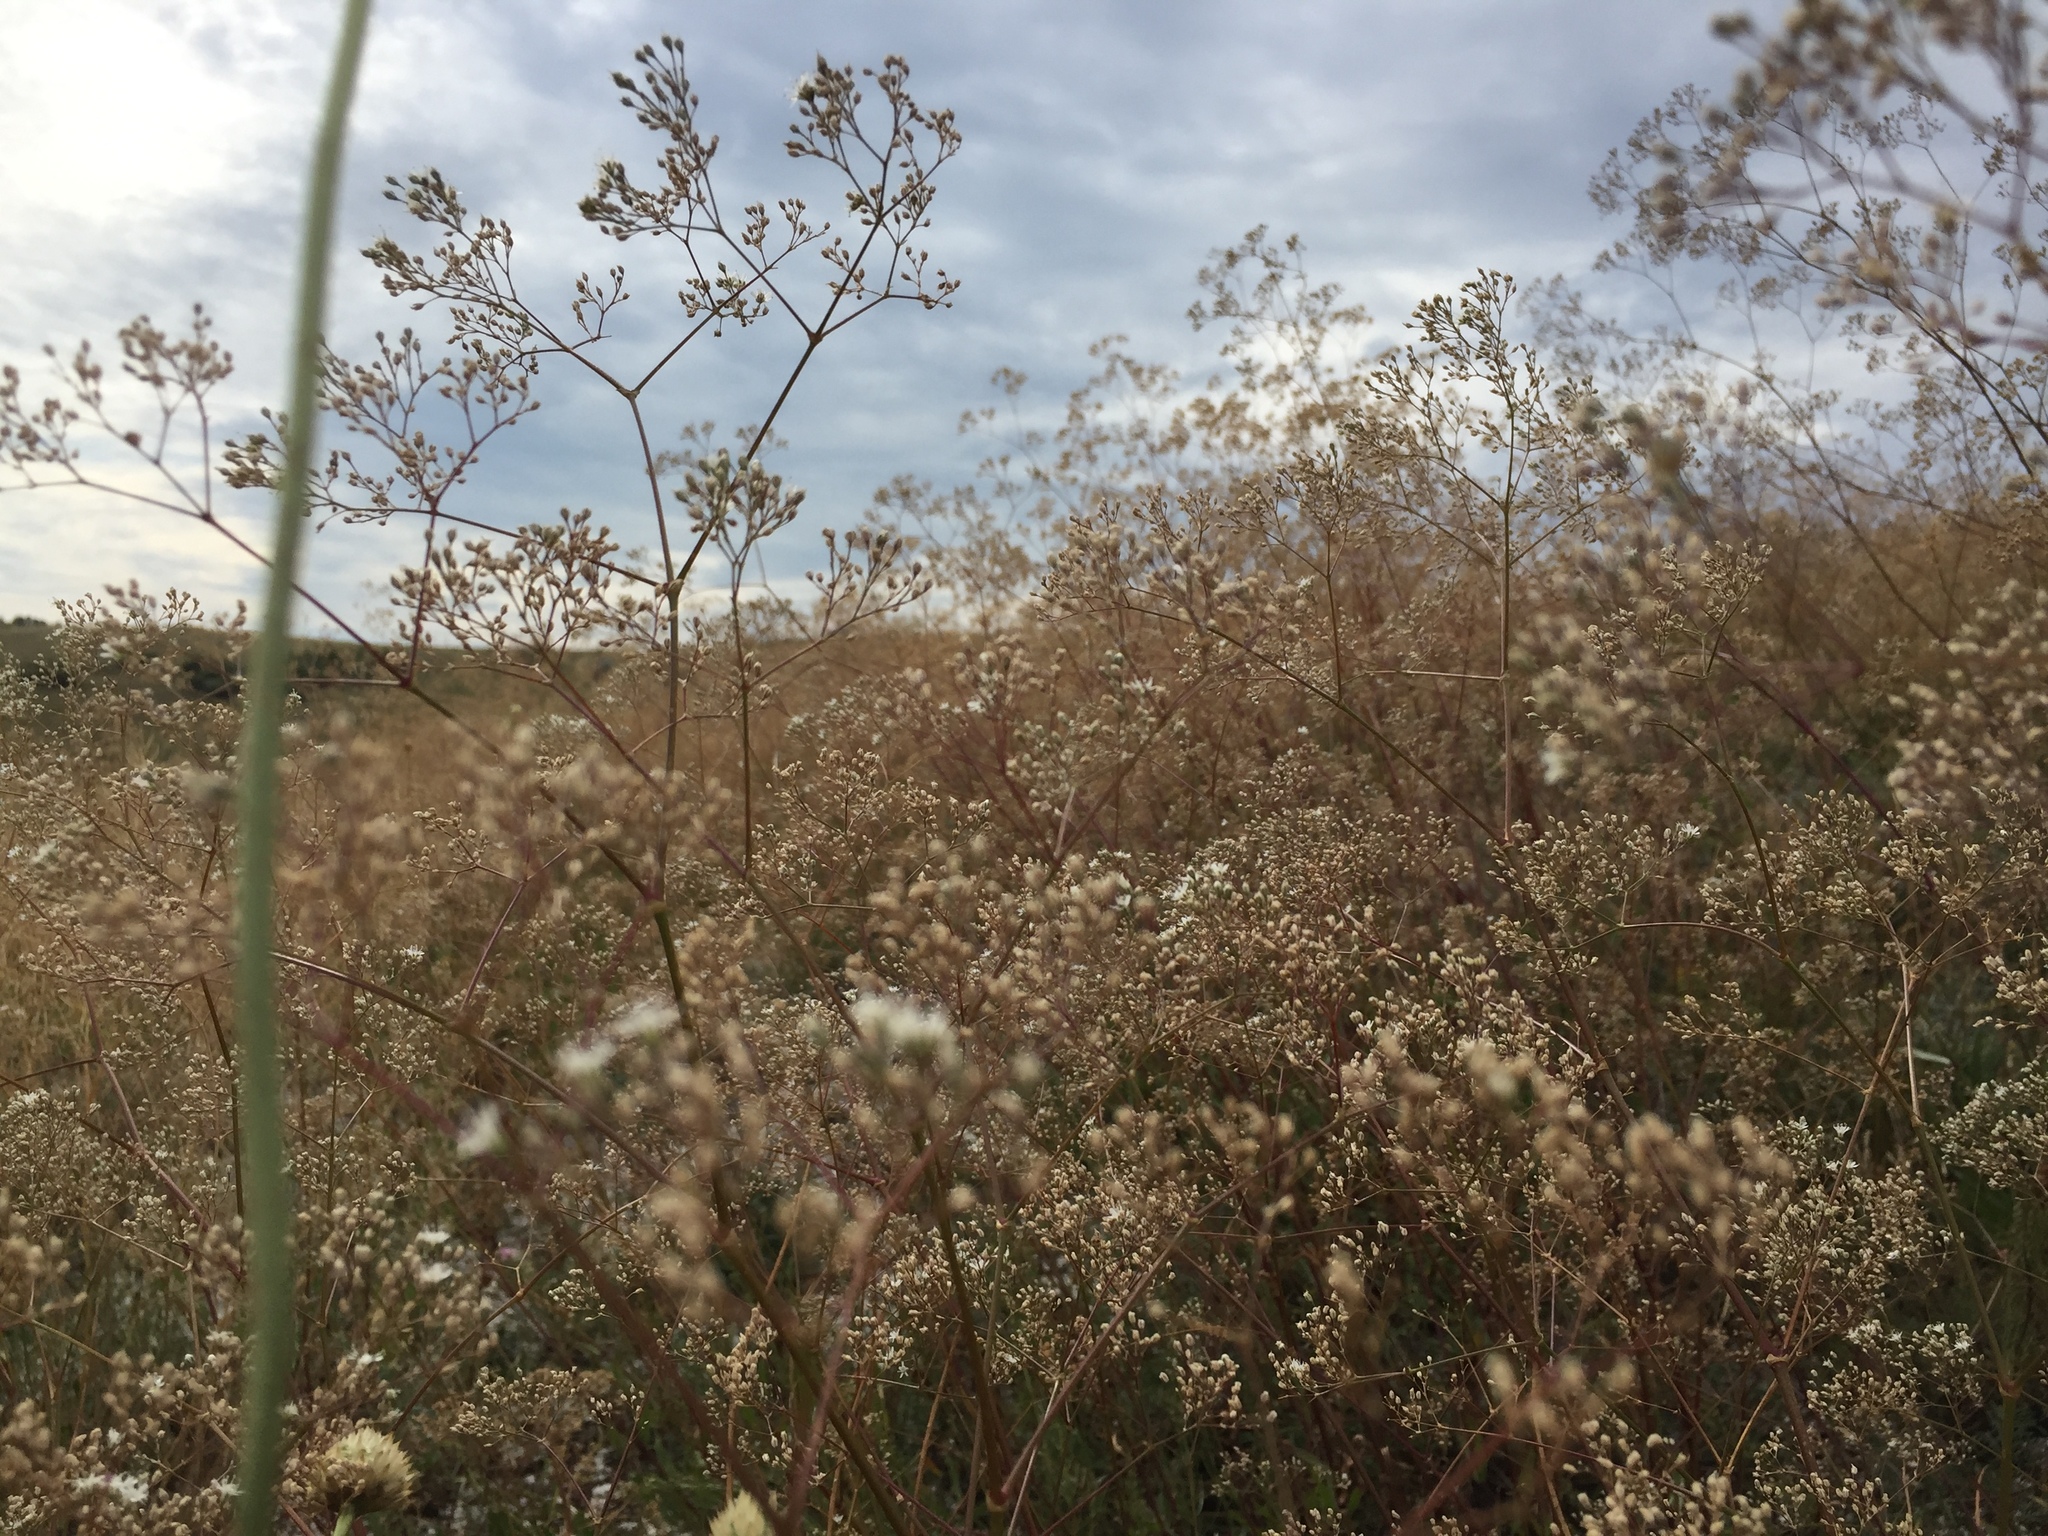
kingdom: Plantae
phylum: Tracheophyta
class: Magnoliopsida
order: Caryophyllales
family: Caryophyllaceae
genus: Gypsophila
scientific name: Gypsophila altissima
